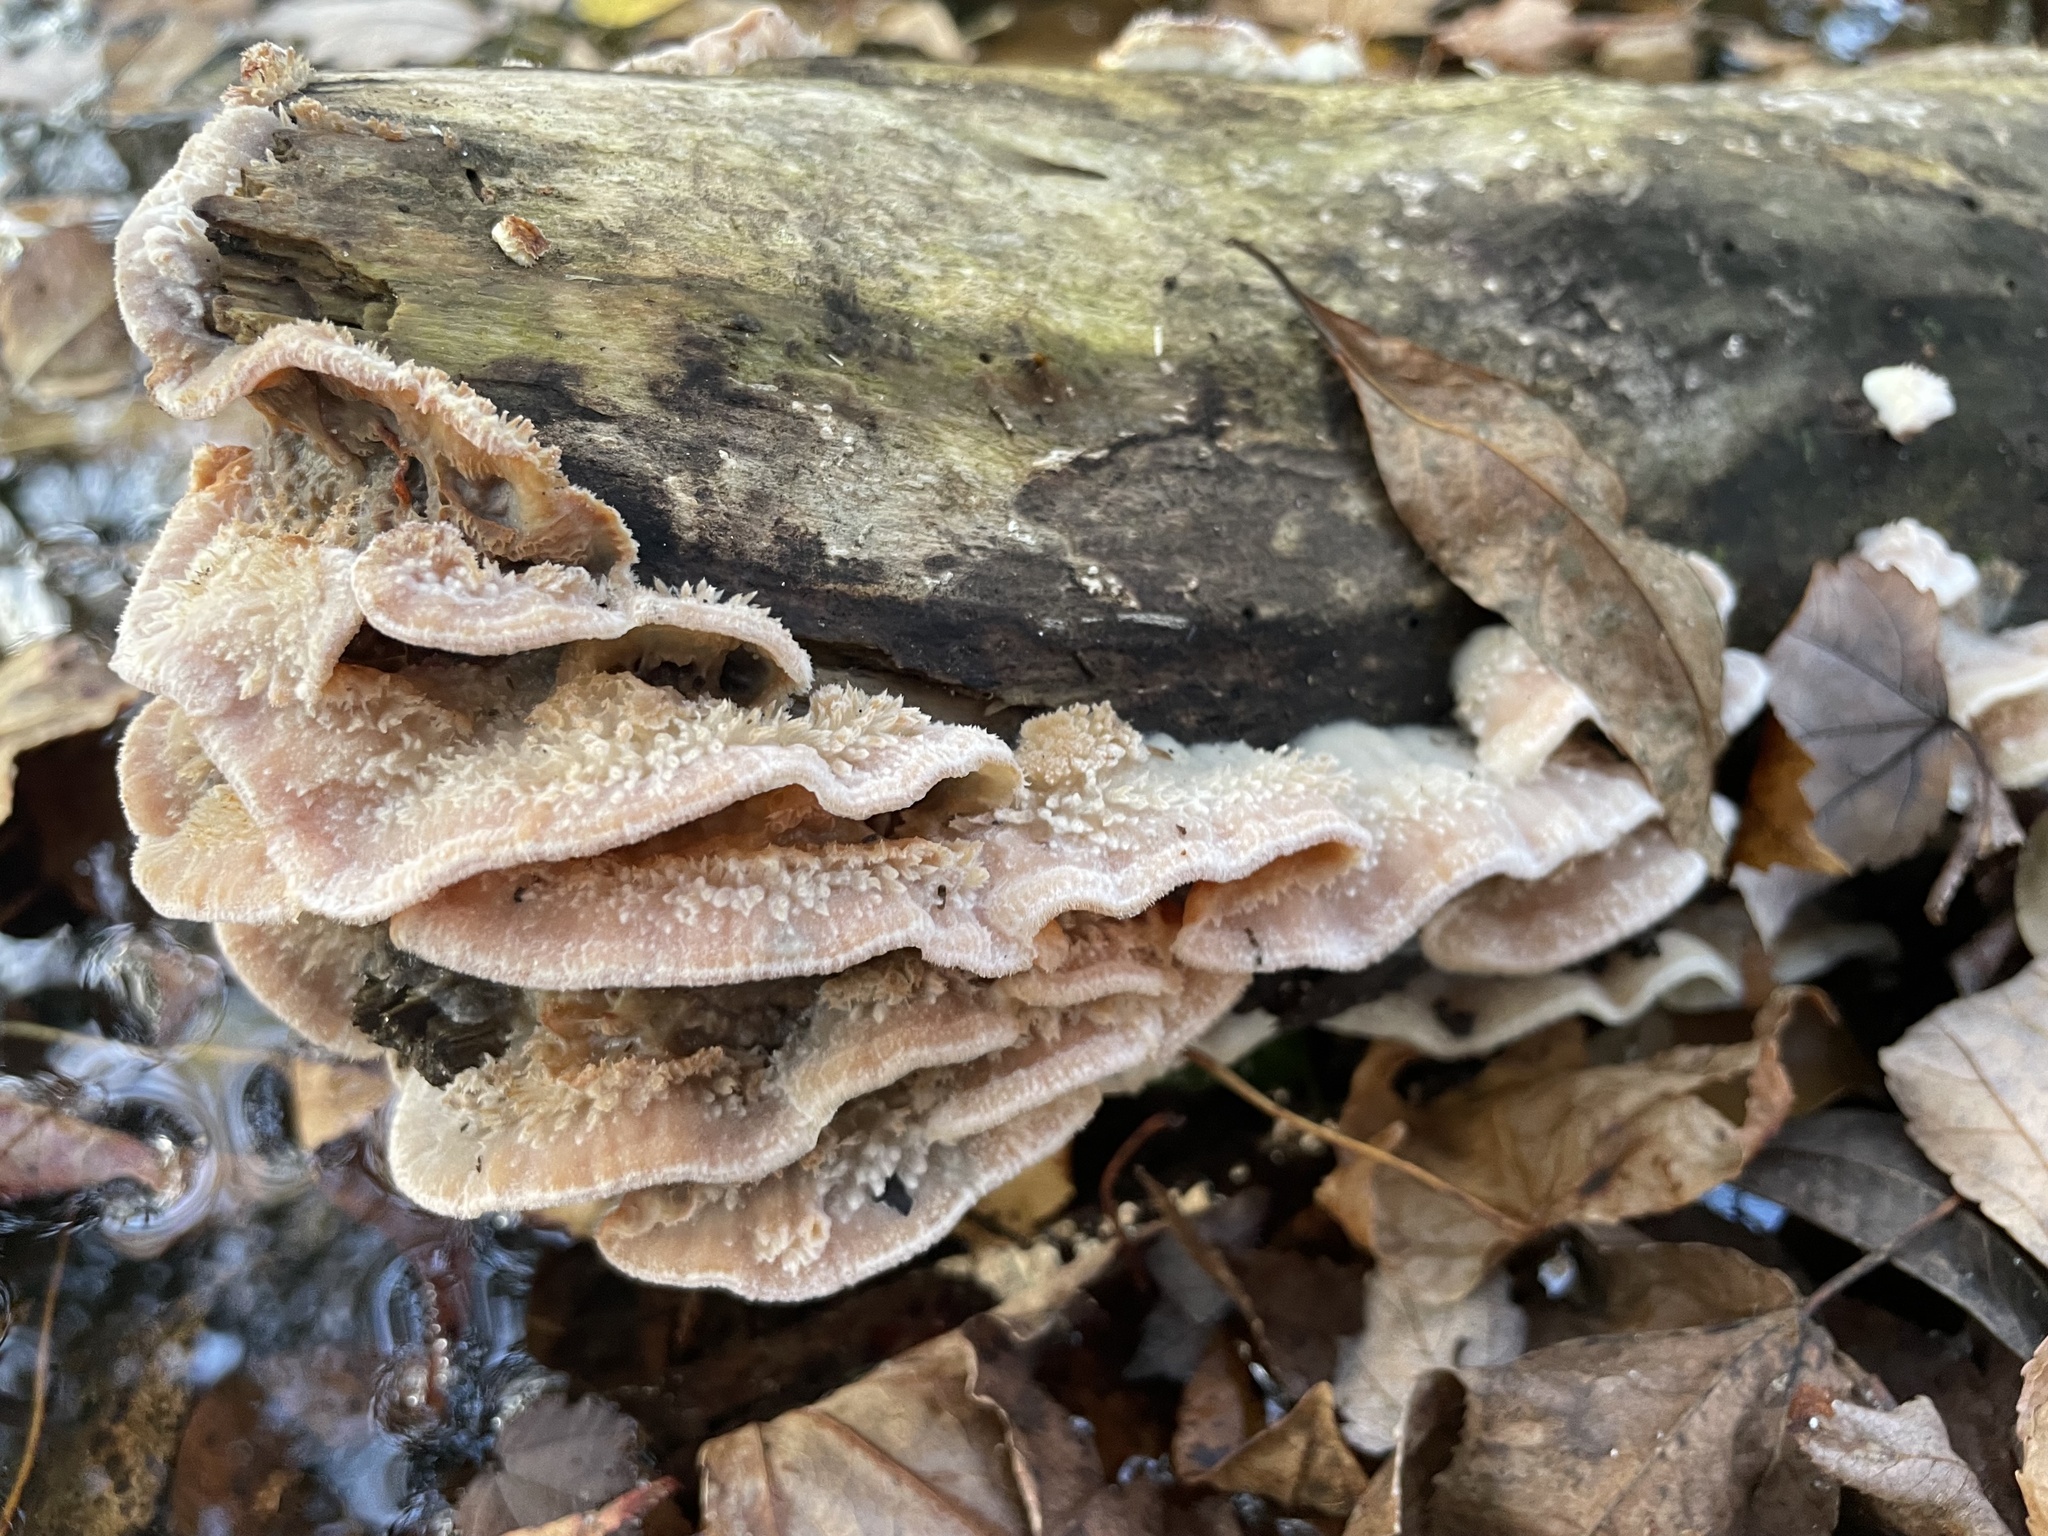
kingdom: Fungi
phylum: Basidiomycota
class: Agaricomycetes
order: Polyporales
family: Meruliaceae
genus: Phlebia
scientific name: Phlebia tremellosa
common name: Jelly rot
